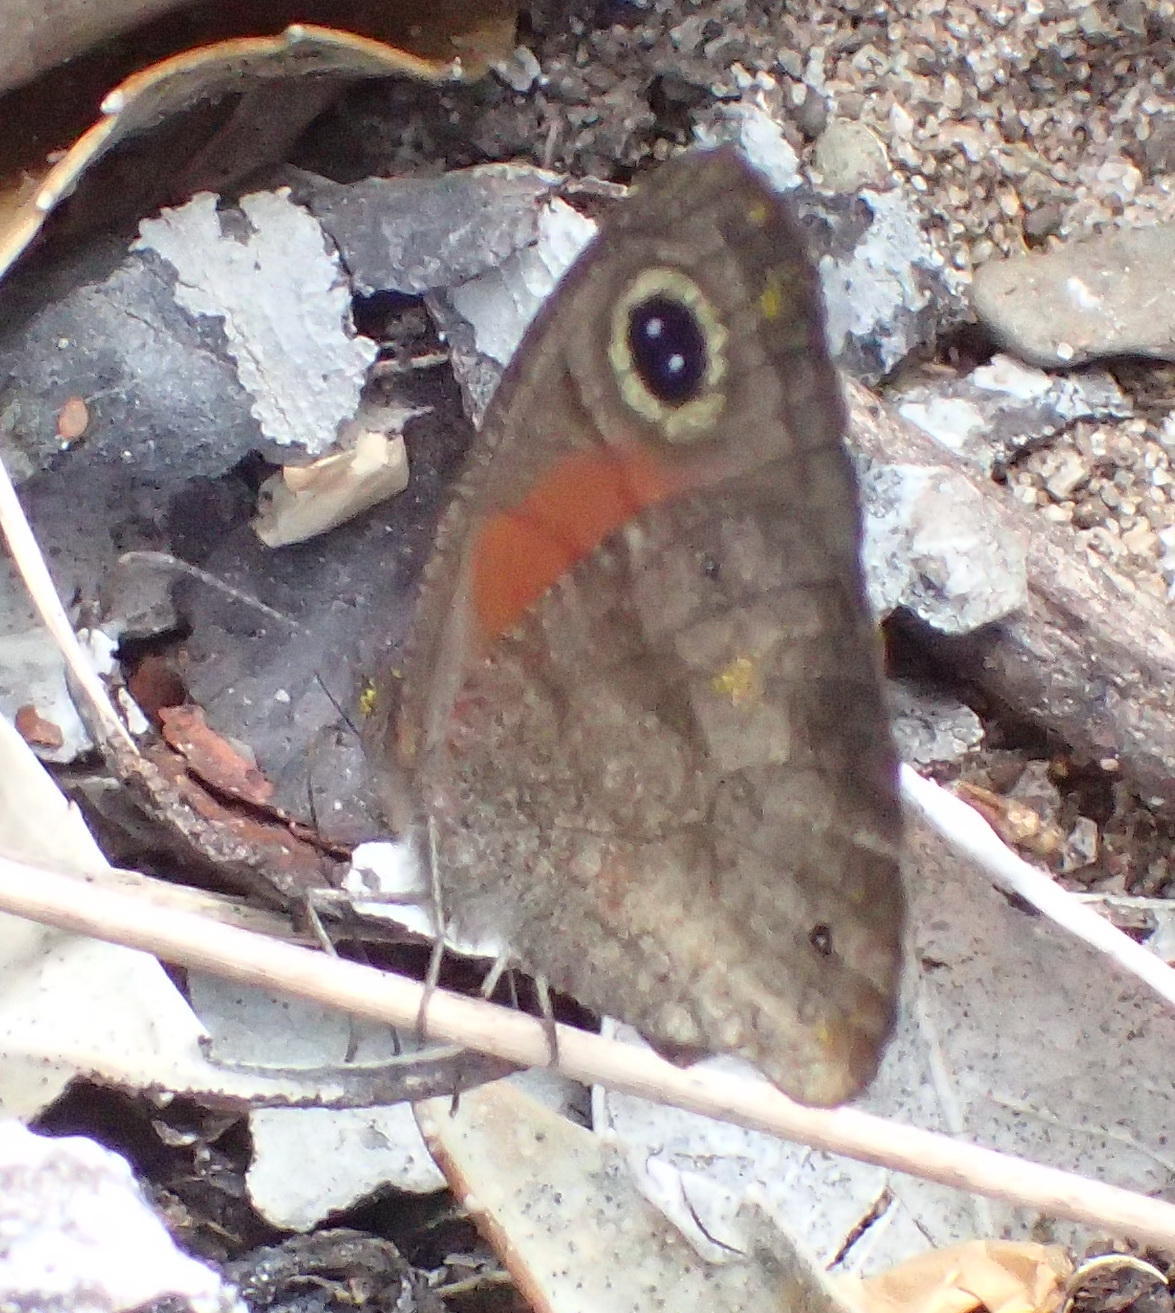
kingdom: Animalia
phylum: Arthropoda
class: Insecta
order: Lepidoptera
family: Nymphalidae
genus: Cassionympha
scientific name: Cassionympha cassius
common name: Rainforest brown
